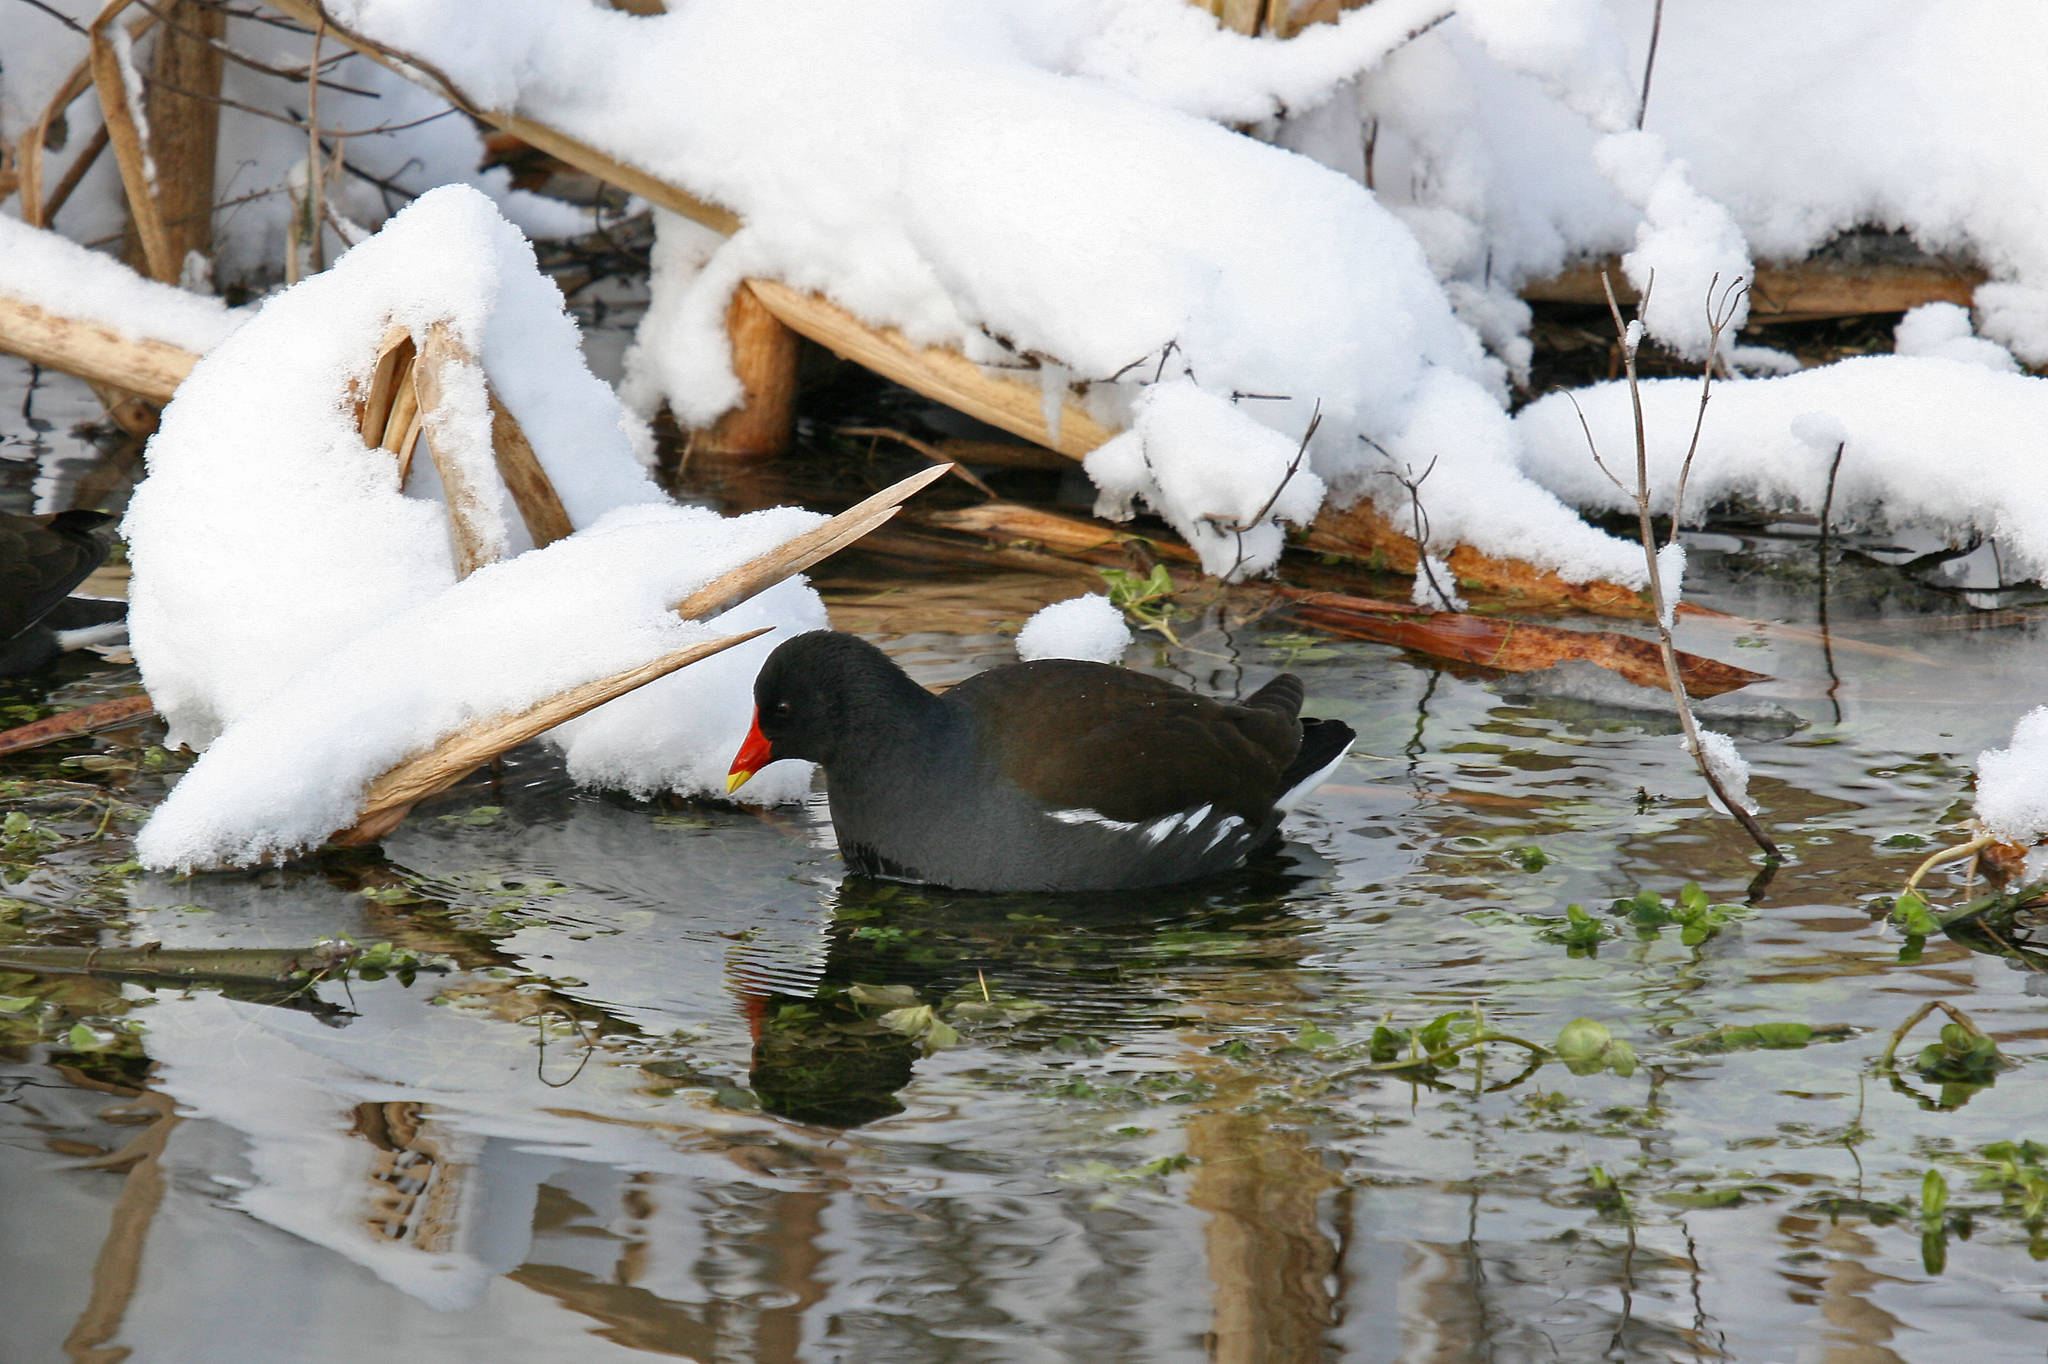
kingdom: Animalia
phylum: Chordata
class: Aves
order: Gruiformes
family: Rallidae
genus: Gallinula
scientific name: Gallinula chloropus
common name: Common moorhen
